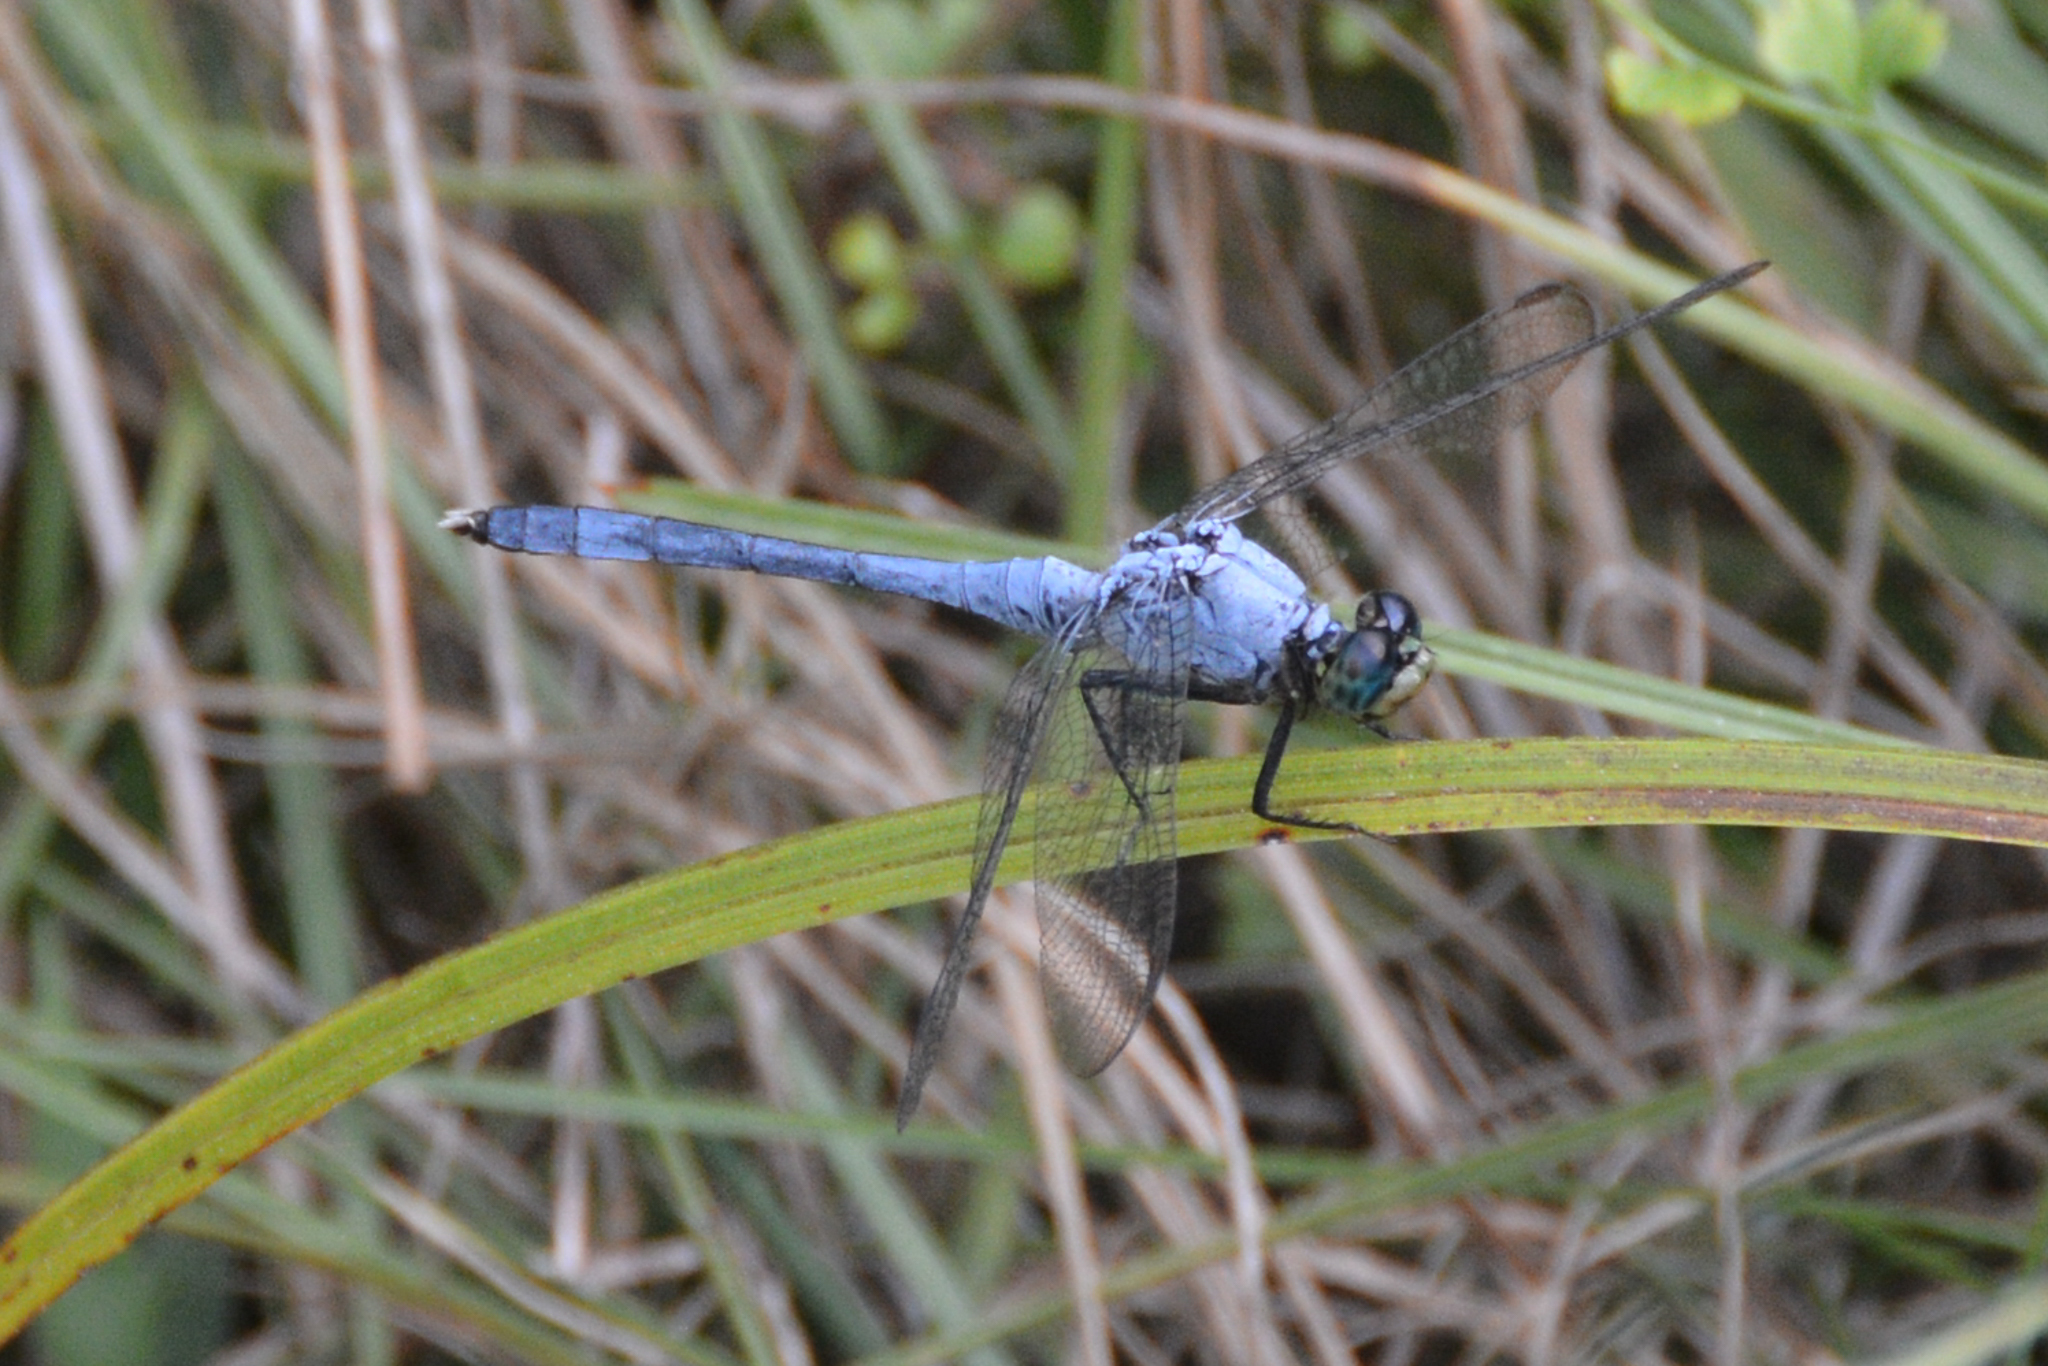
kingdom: Animalia
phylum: Arthropoda
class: Insecta
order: Odonata
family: Libellulidae
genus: Erythemis
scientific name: Erythemis simplicicollis
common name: Eastern pondhawk
